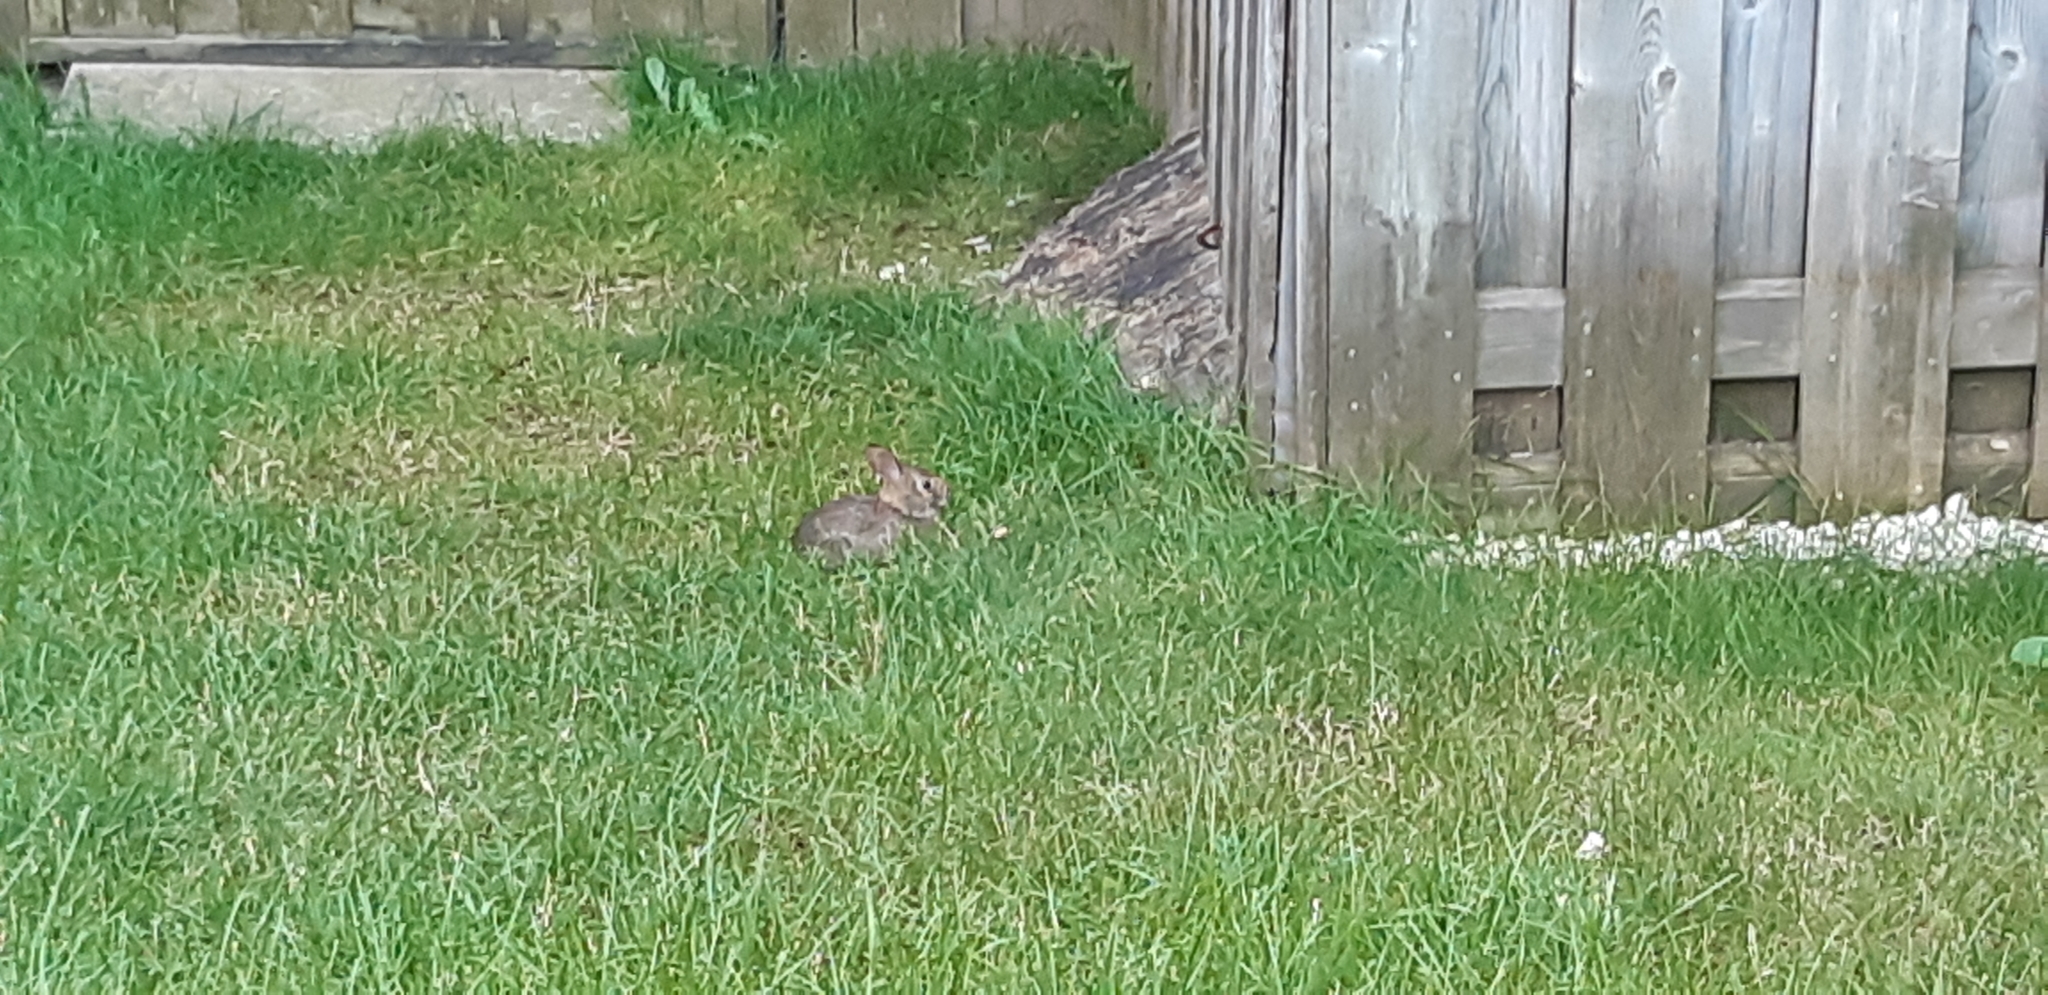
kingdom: Animalia
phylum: Chordata
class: Mammalia
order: Lagomorpha
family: Leporidae
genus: Sylvilagus
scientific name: Sylvilagus floridanus
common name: Eastern cottontail
